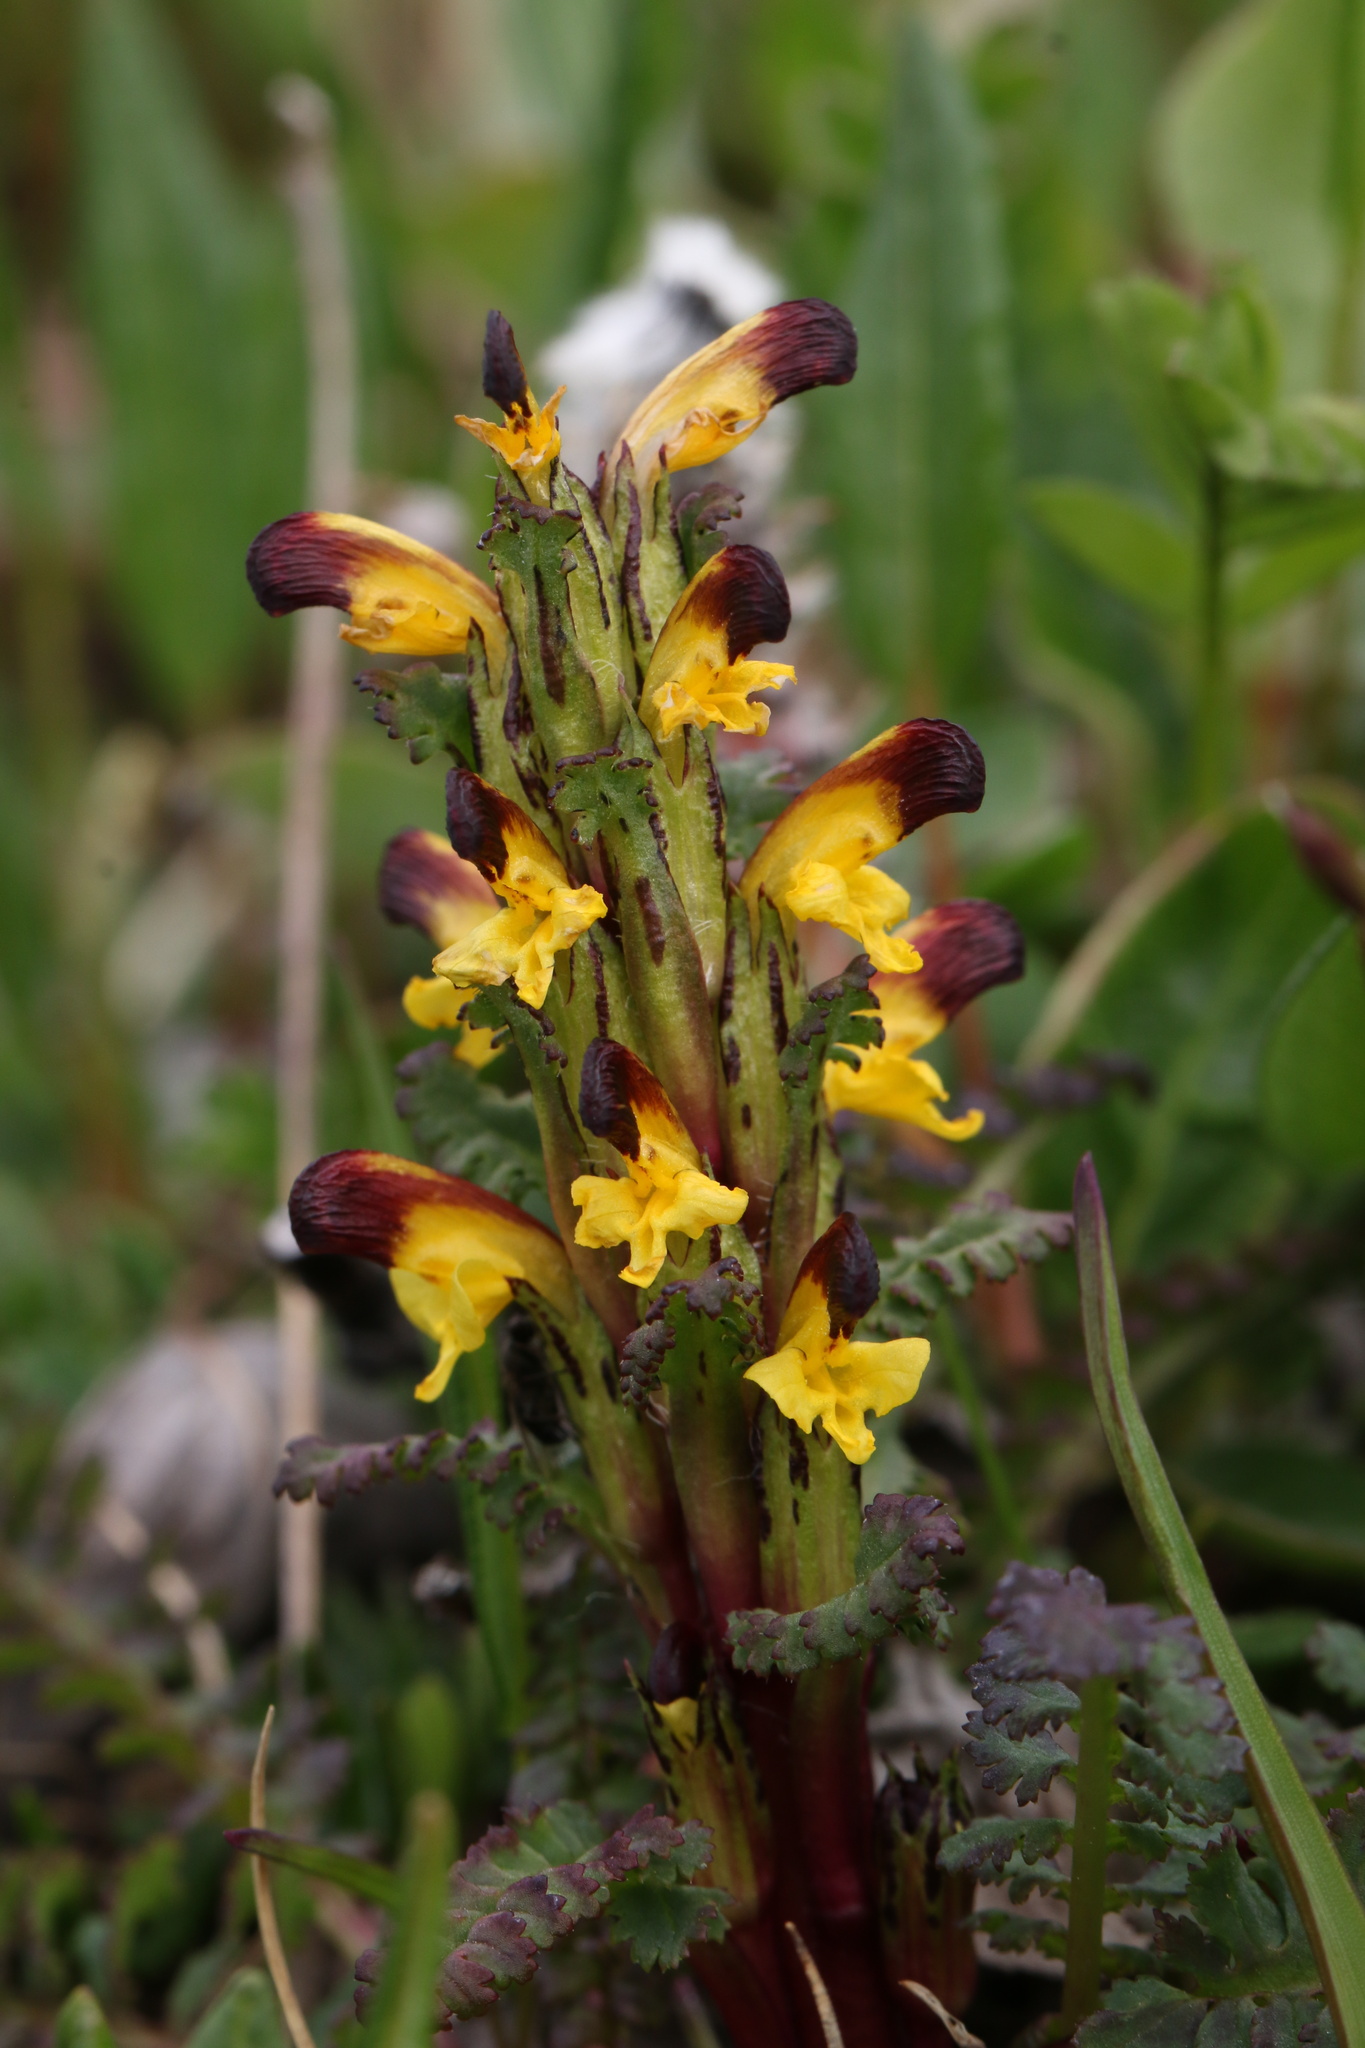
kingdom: Plantae
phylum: Tracheophyta
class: Magnoliopsida
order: Lamiales
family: Orobanchaceae
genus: Pedicularis
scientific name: Pedicularis flammea
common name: Flame-coloured lousewort
